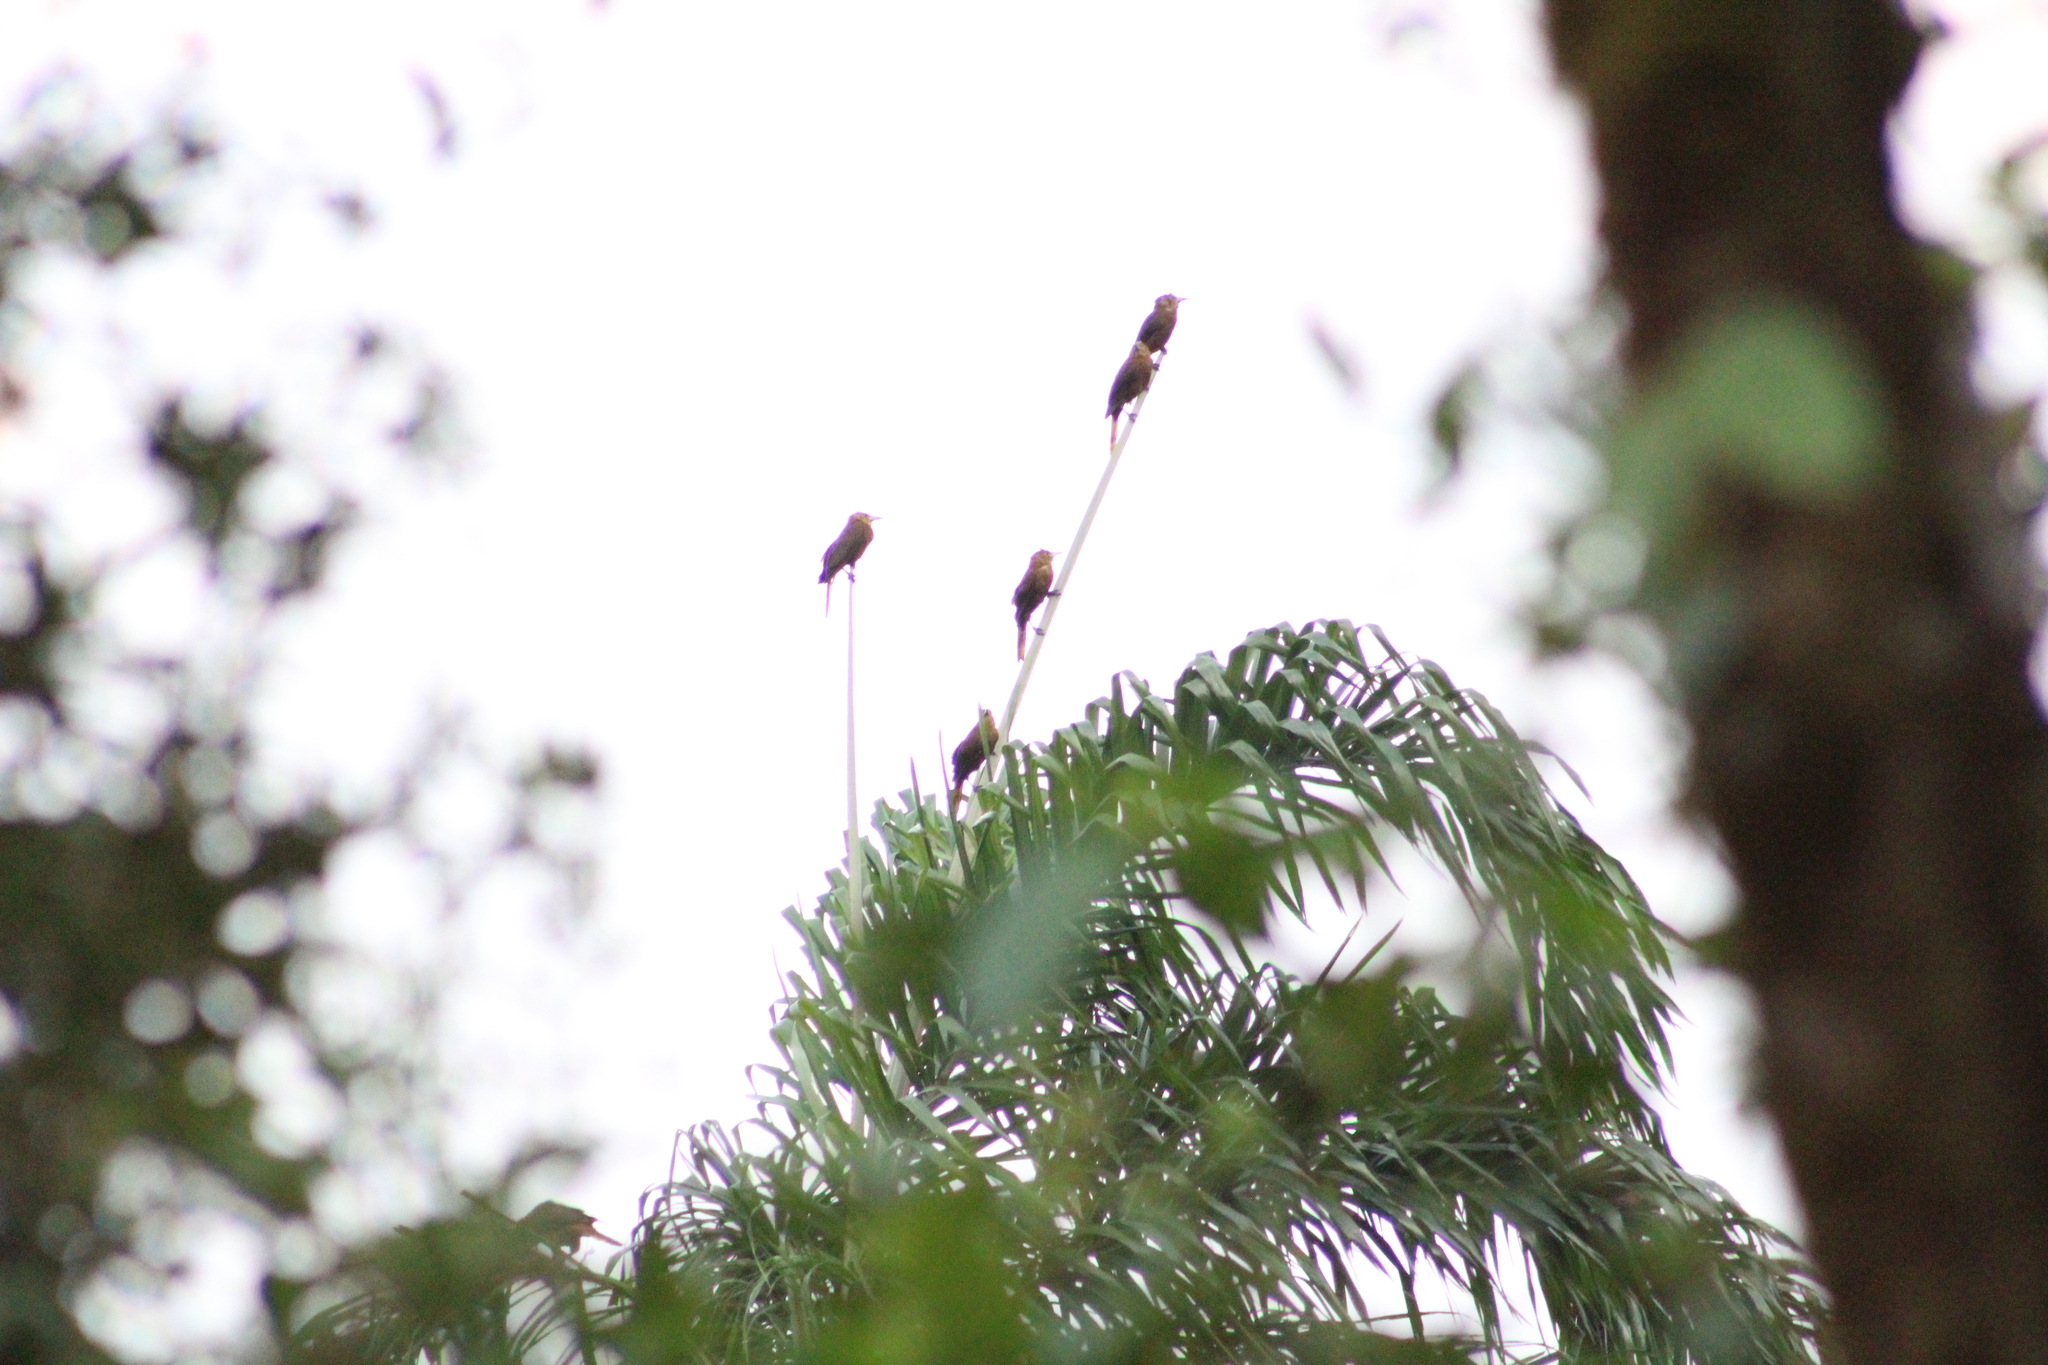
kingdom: Animalia
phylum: Chordata
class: Aves
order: Passeriformes
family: Icteridae
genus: Psarocolius
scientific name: Psarocolius angustifrons
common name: Russet-backed oropendola
